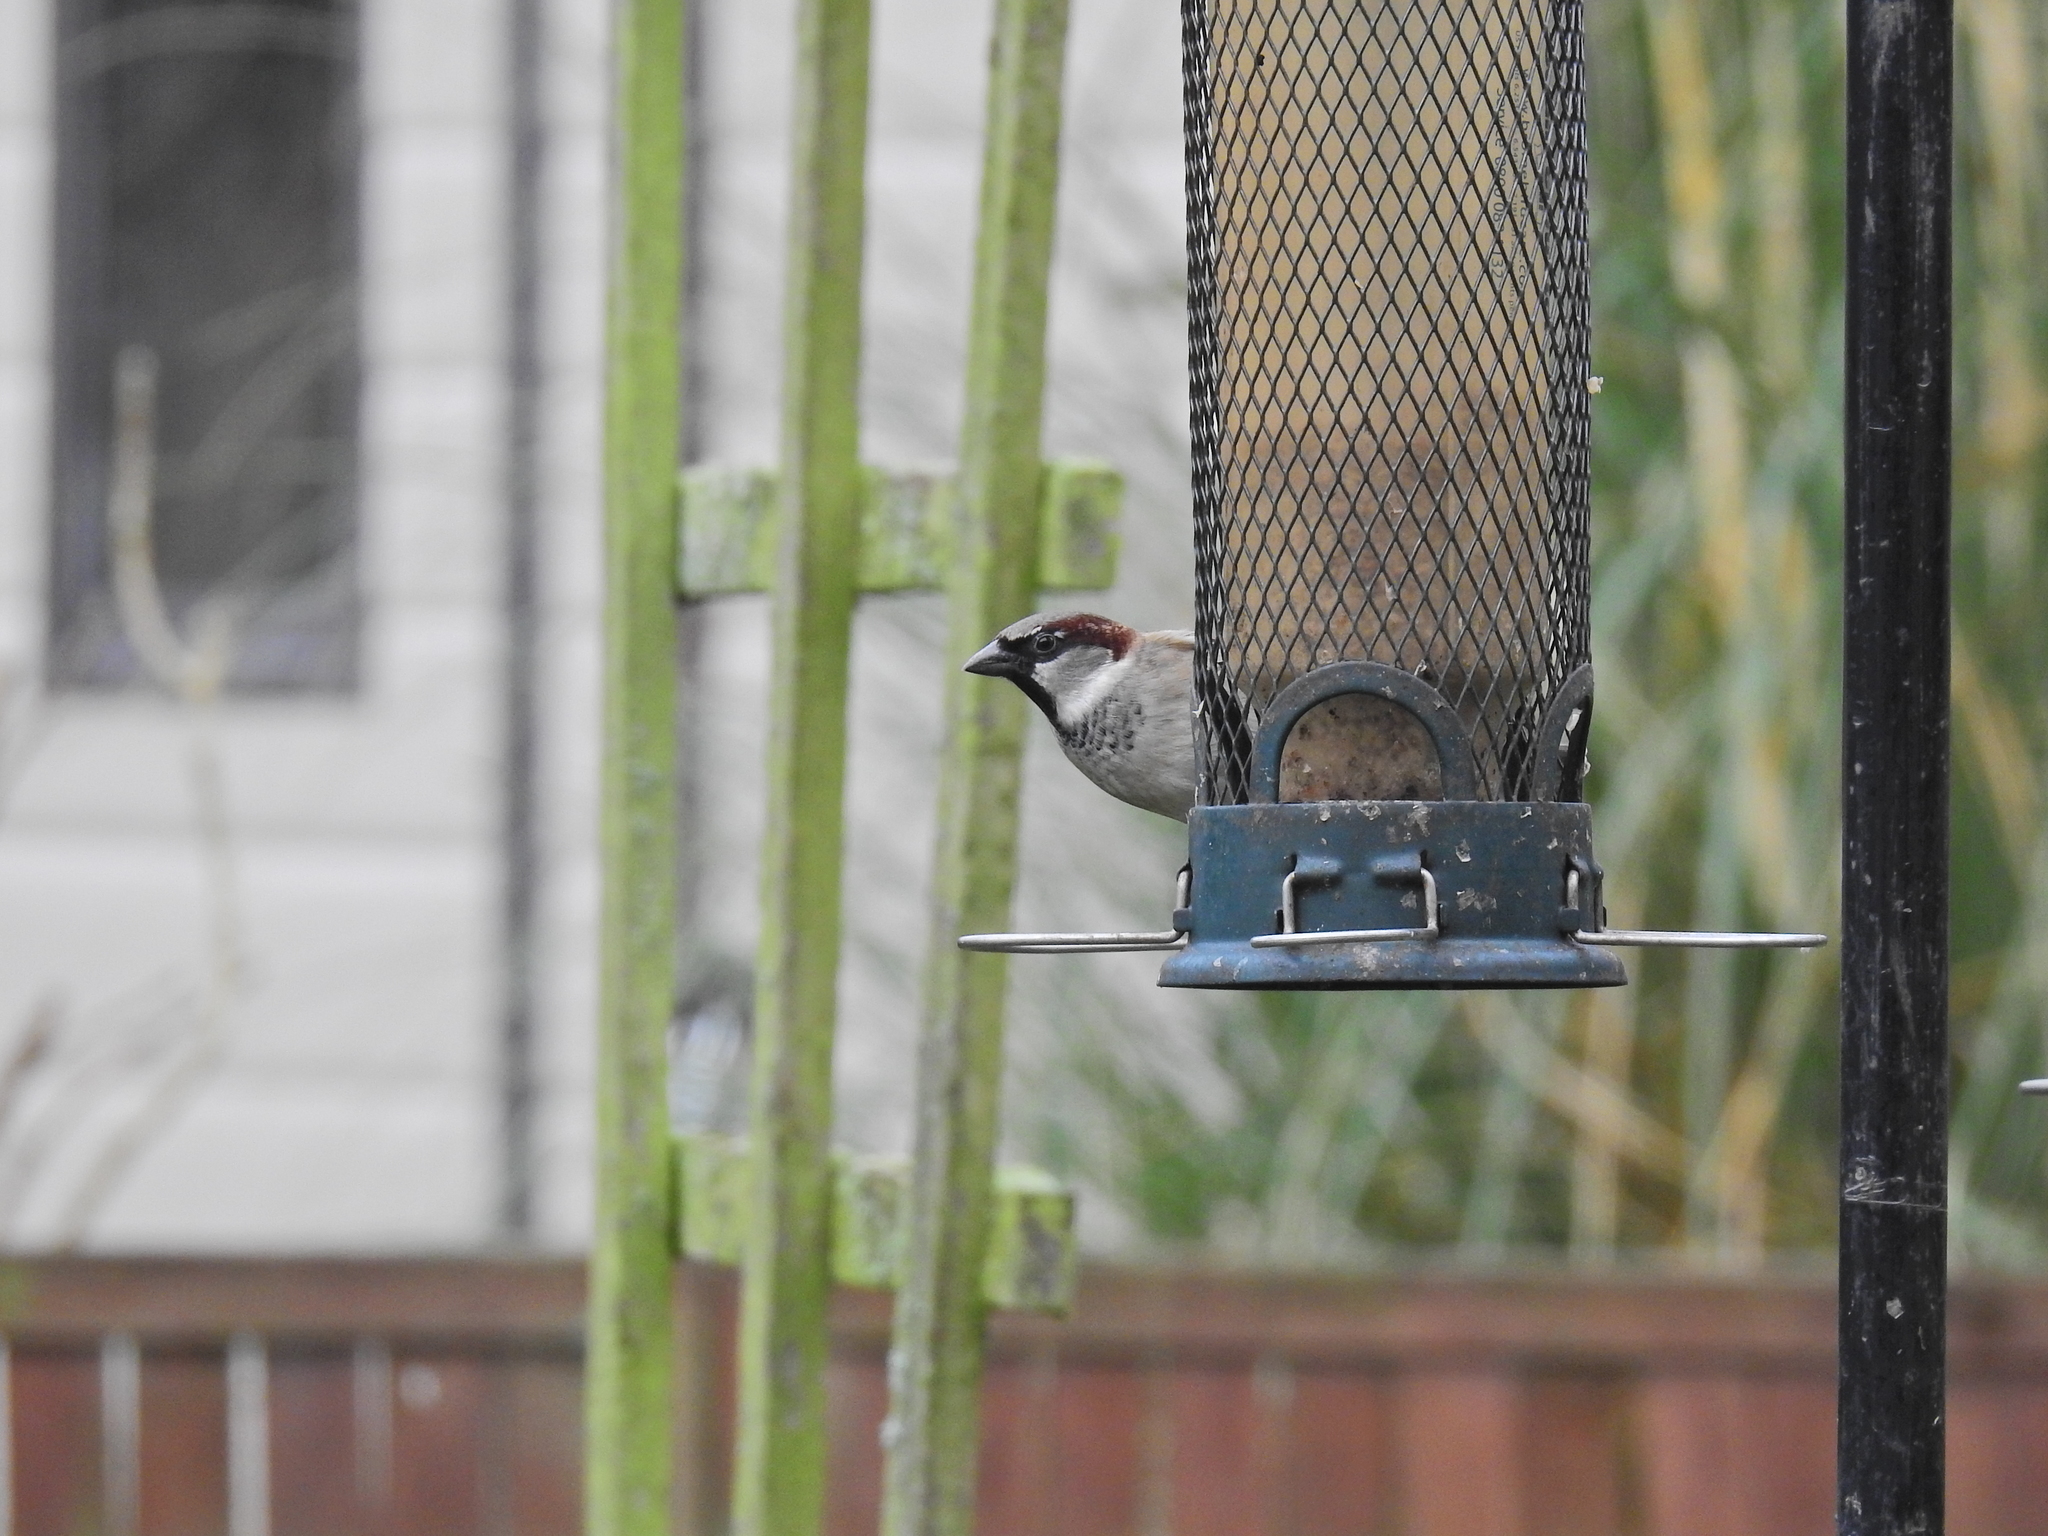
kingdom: Animalia
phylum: Chordata
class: Aves
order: Passeriformes
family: Passeridae
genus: Passer
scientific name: Passer domesticus
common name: House sparrow
